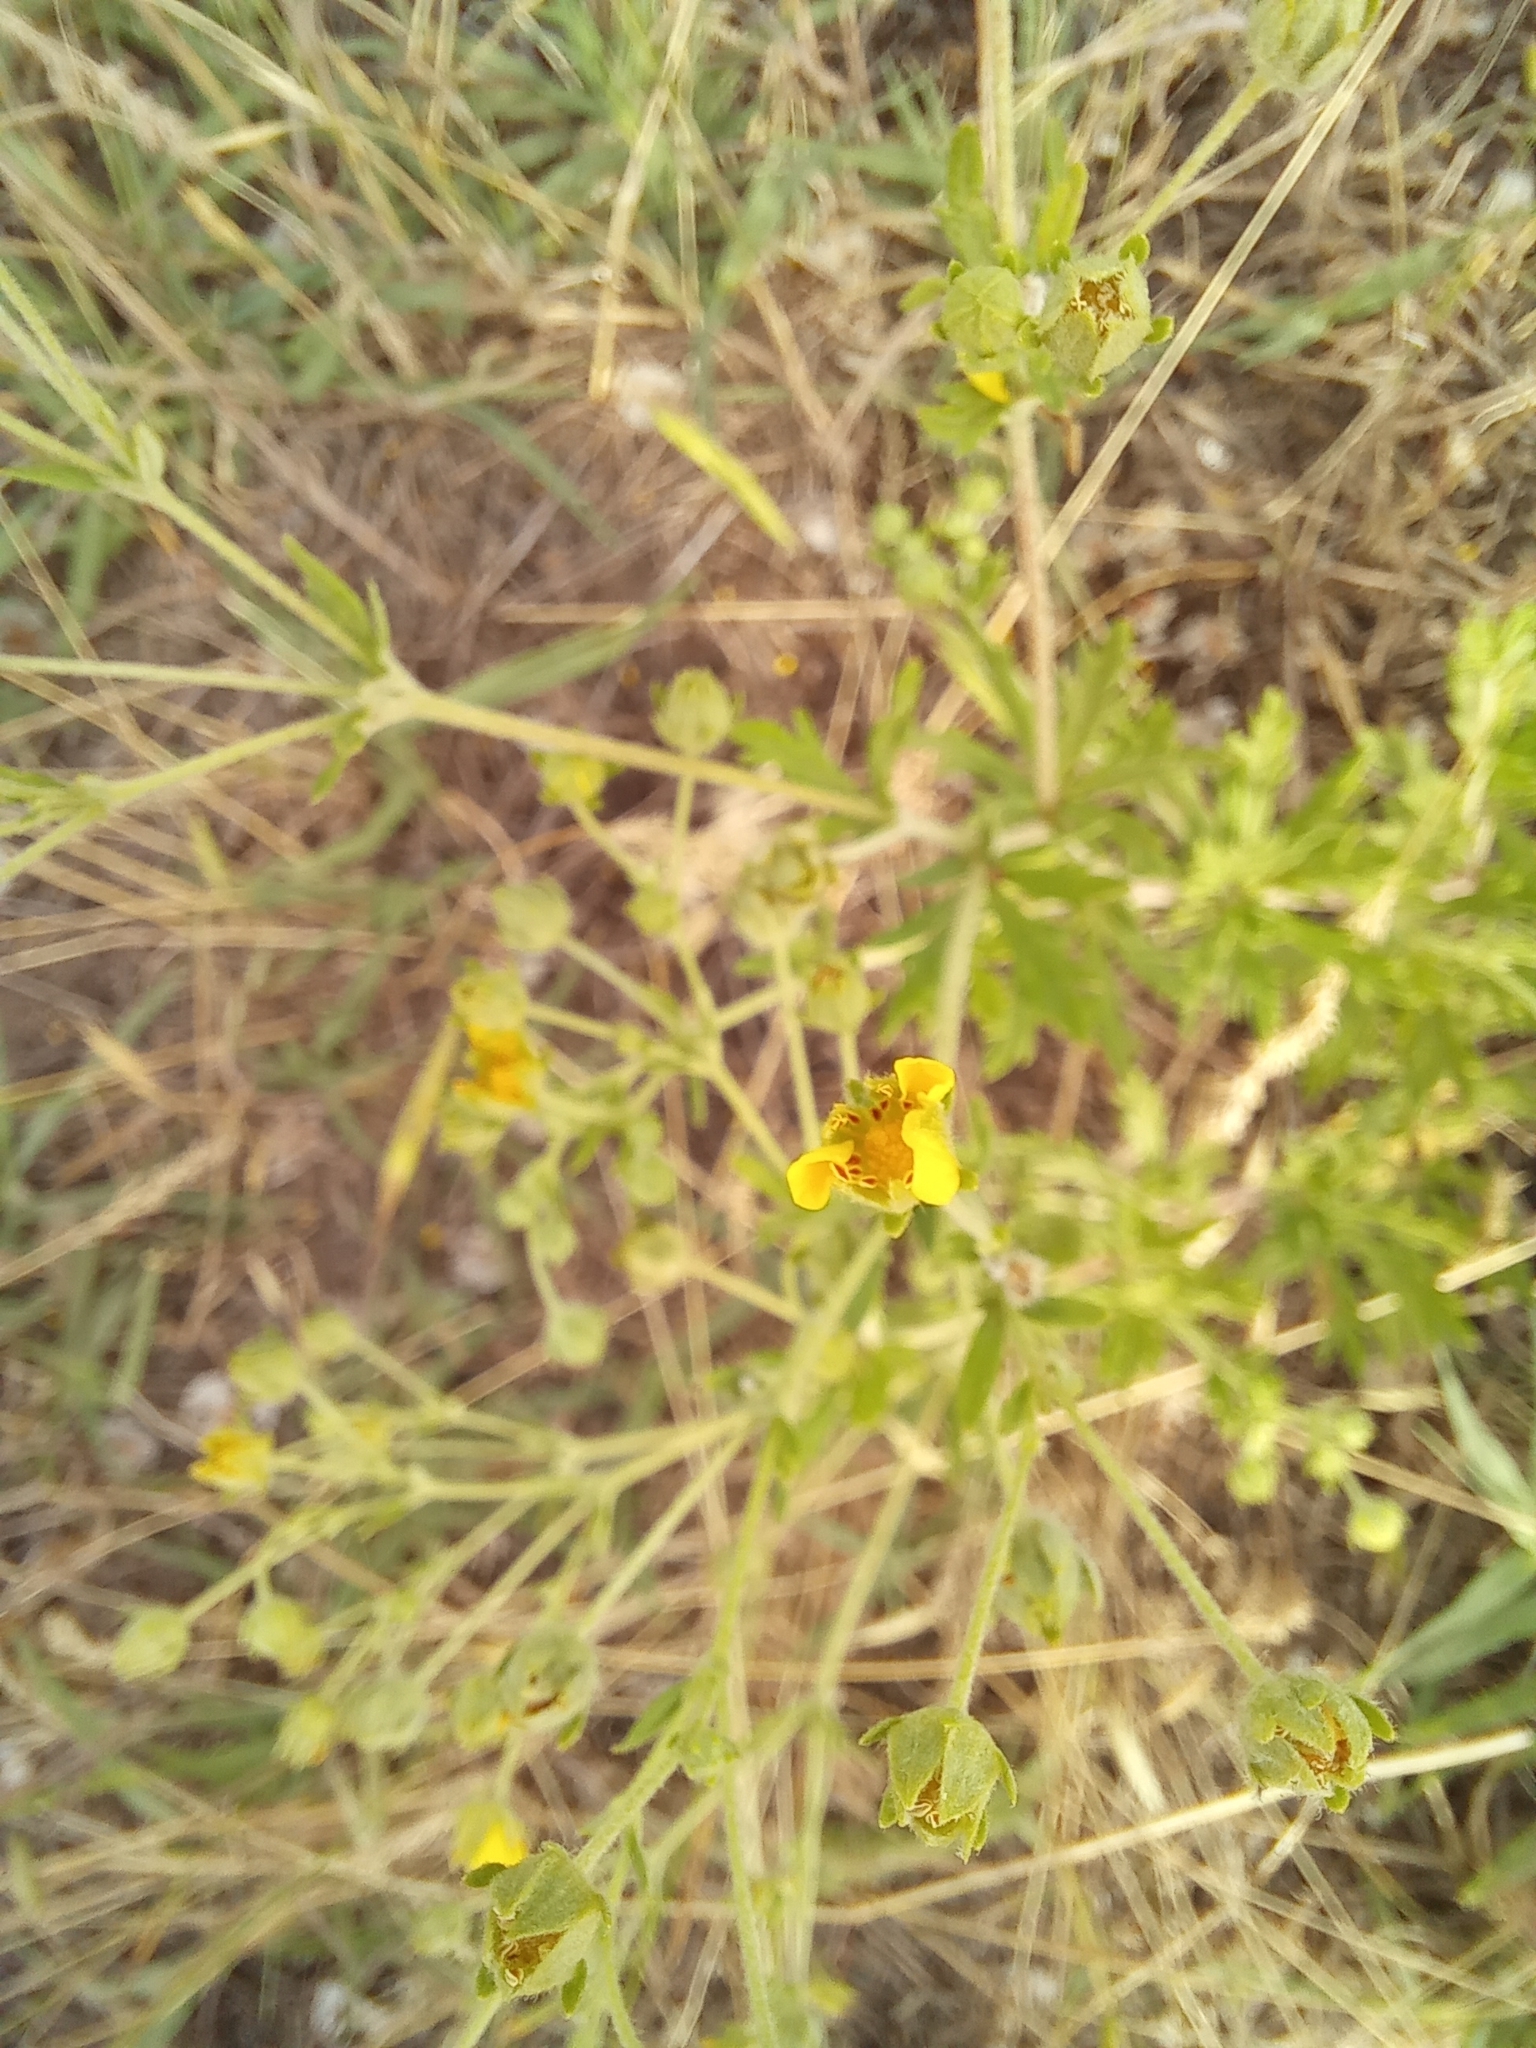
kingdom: Plantae
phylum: Tracheophyta
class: Magnoliopsida
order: Rosales
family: Rosaceae
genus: Potentilla
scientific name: Potentilla argentea
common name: Hoary cinquefoil
